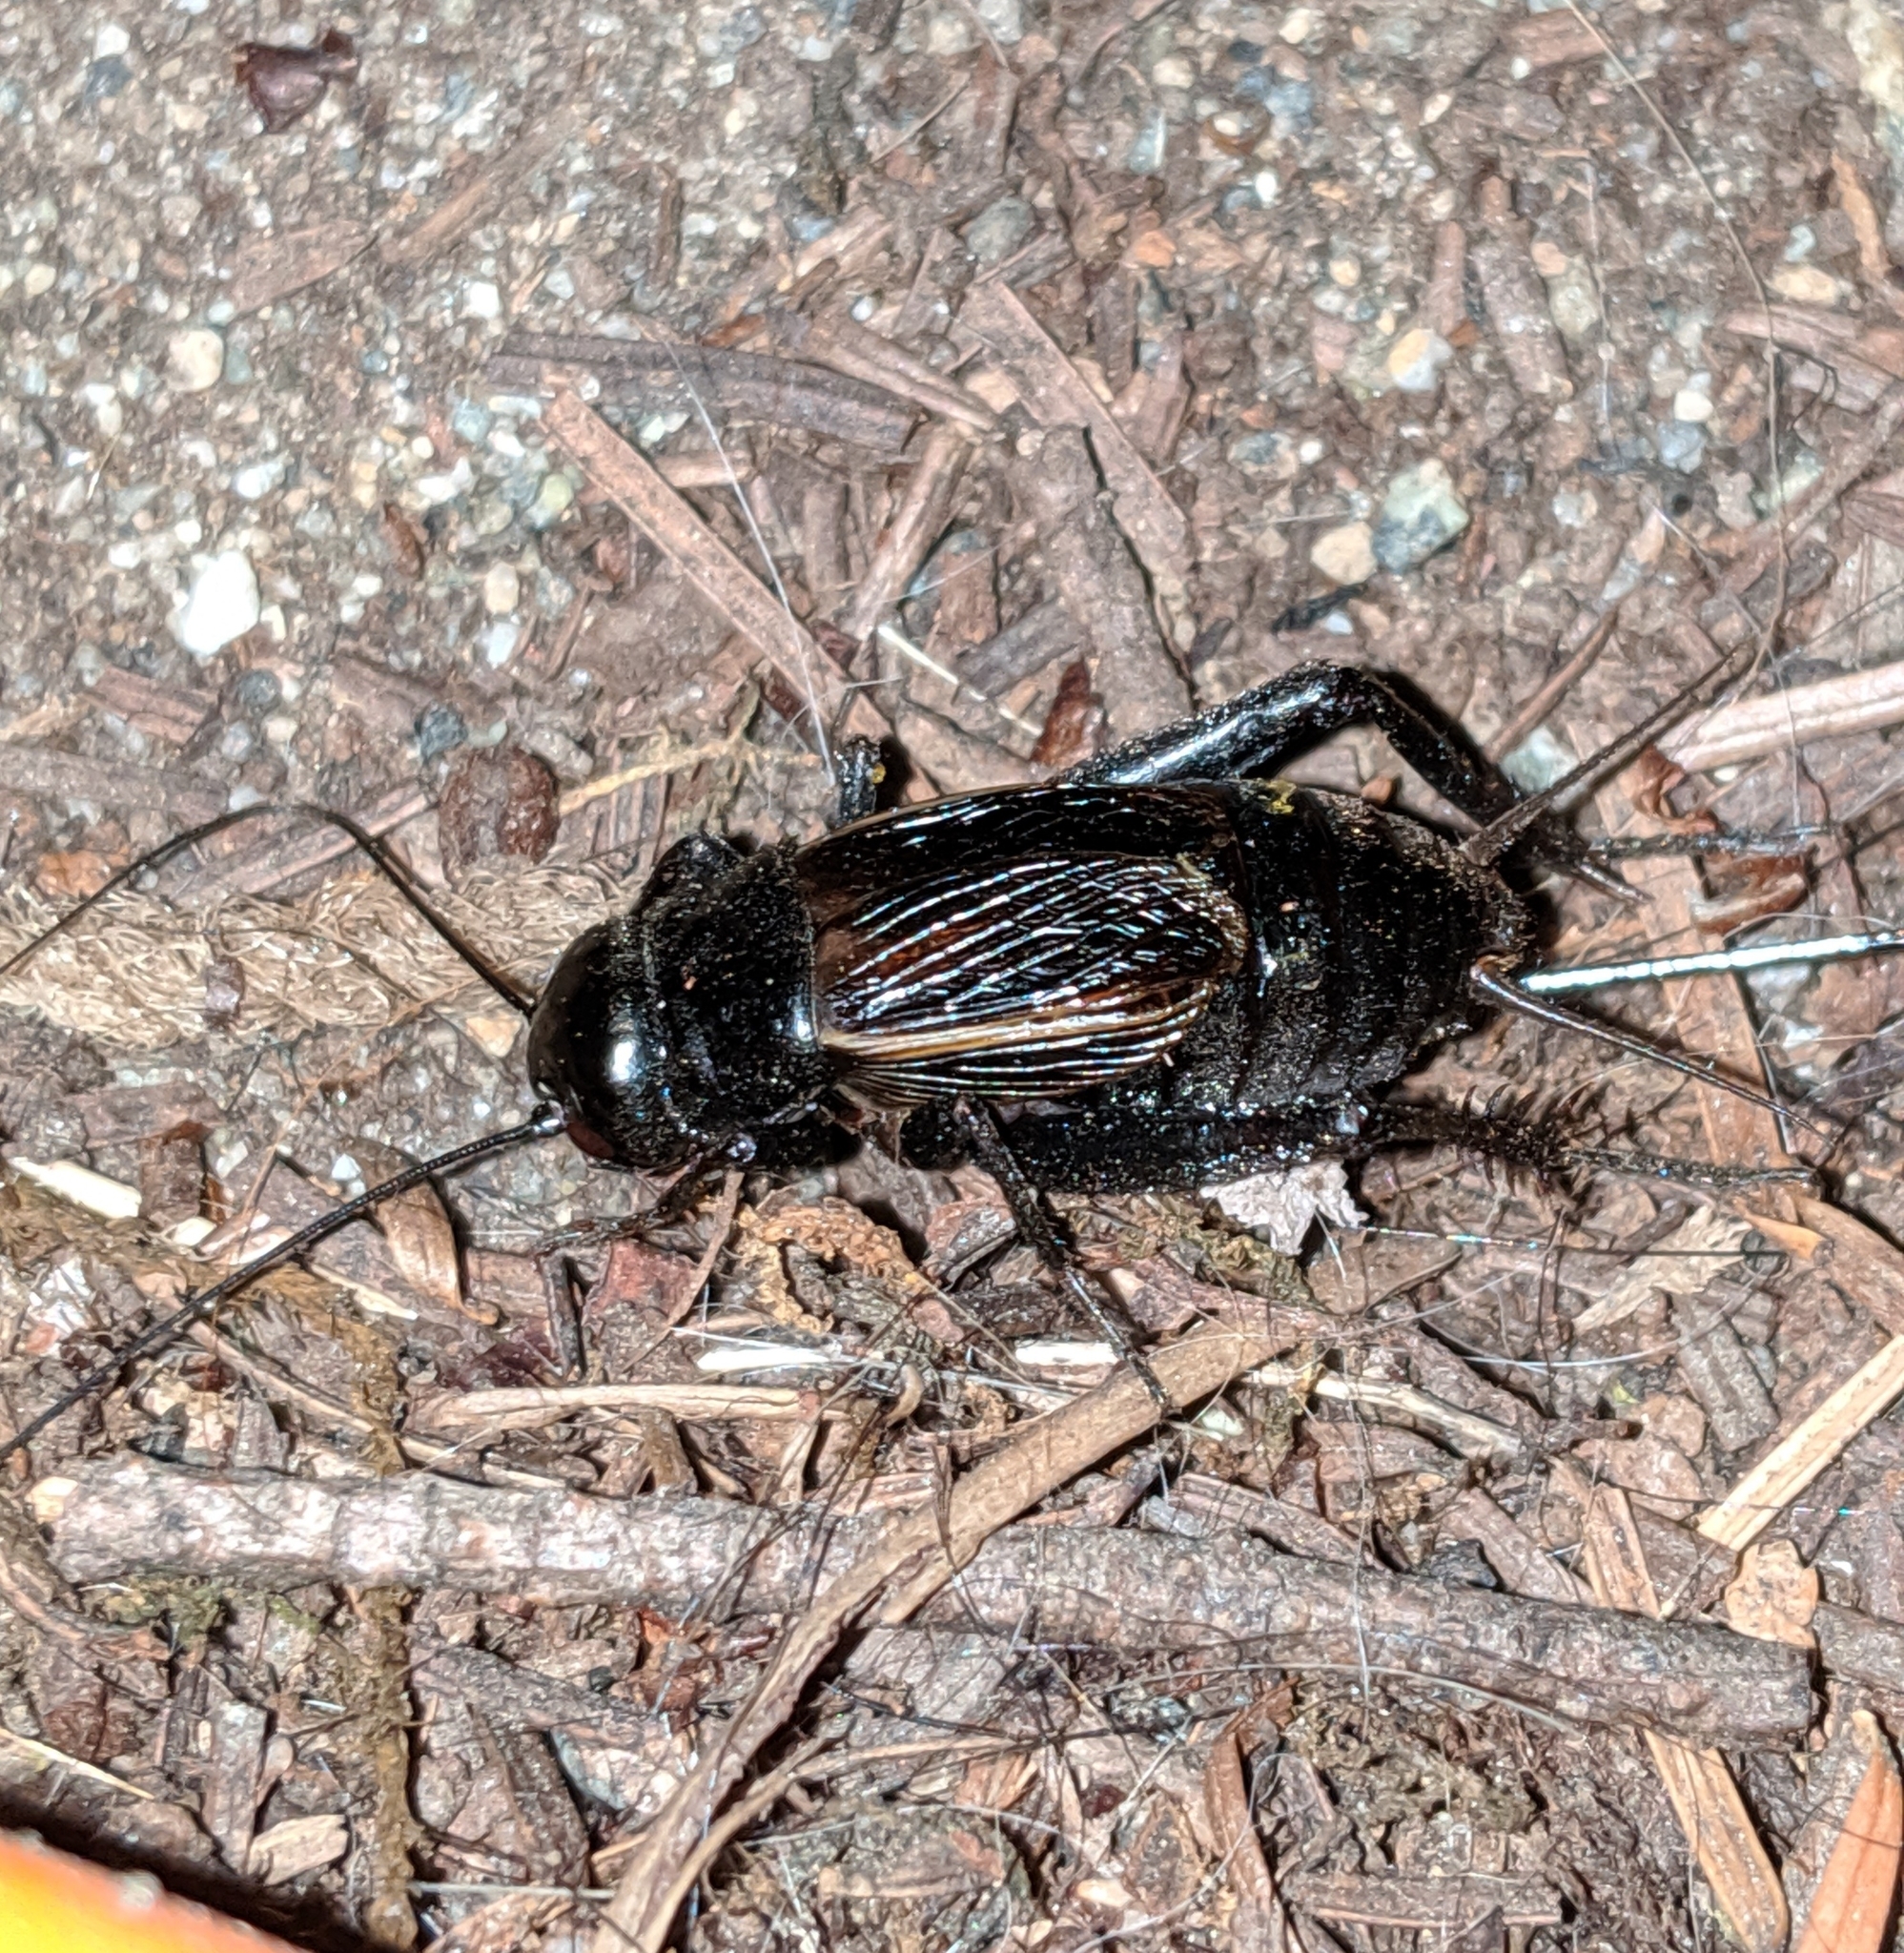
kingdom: Animalia
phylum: Arthropoda
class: Insecta
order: Orthoptera
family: Gryllidae
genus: Gryllus
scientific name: Gryllus pennsylvanicus
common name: Fall field cricket
